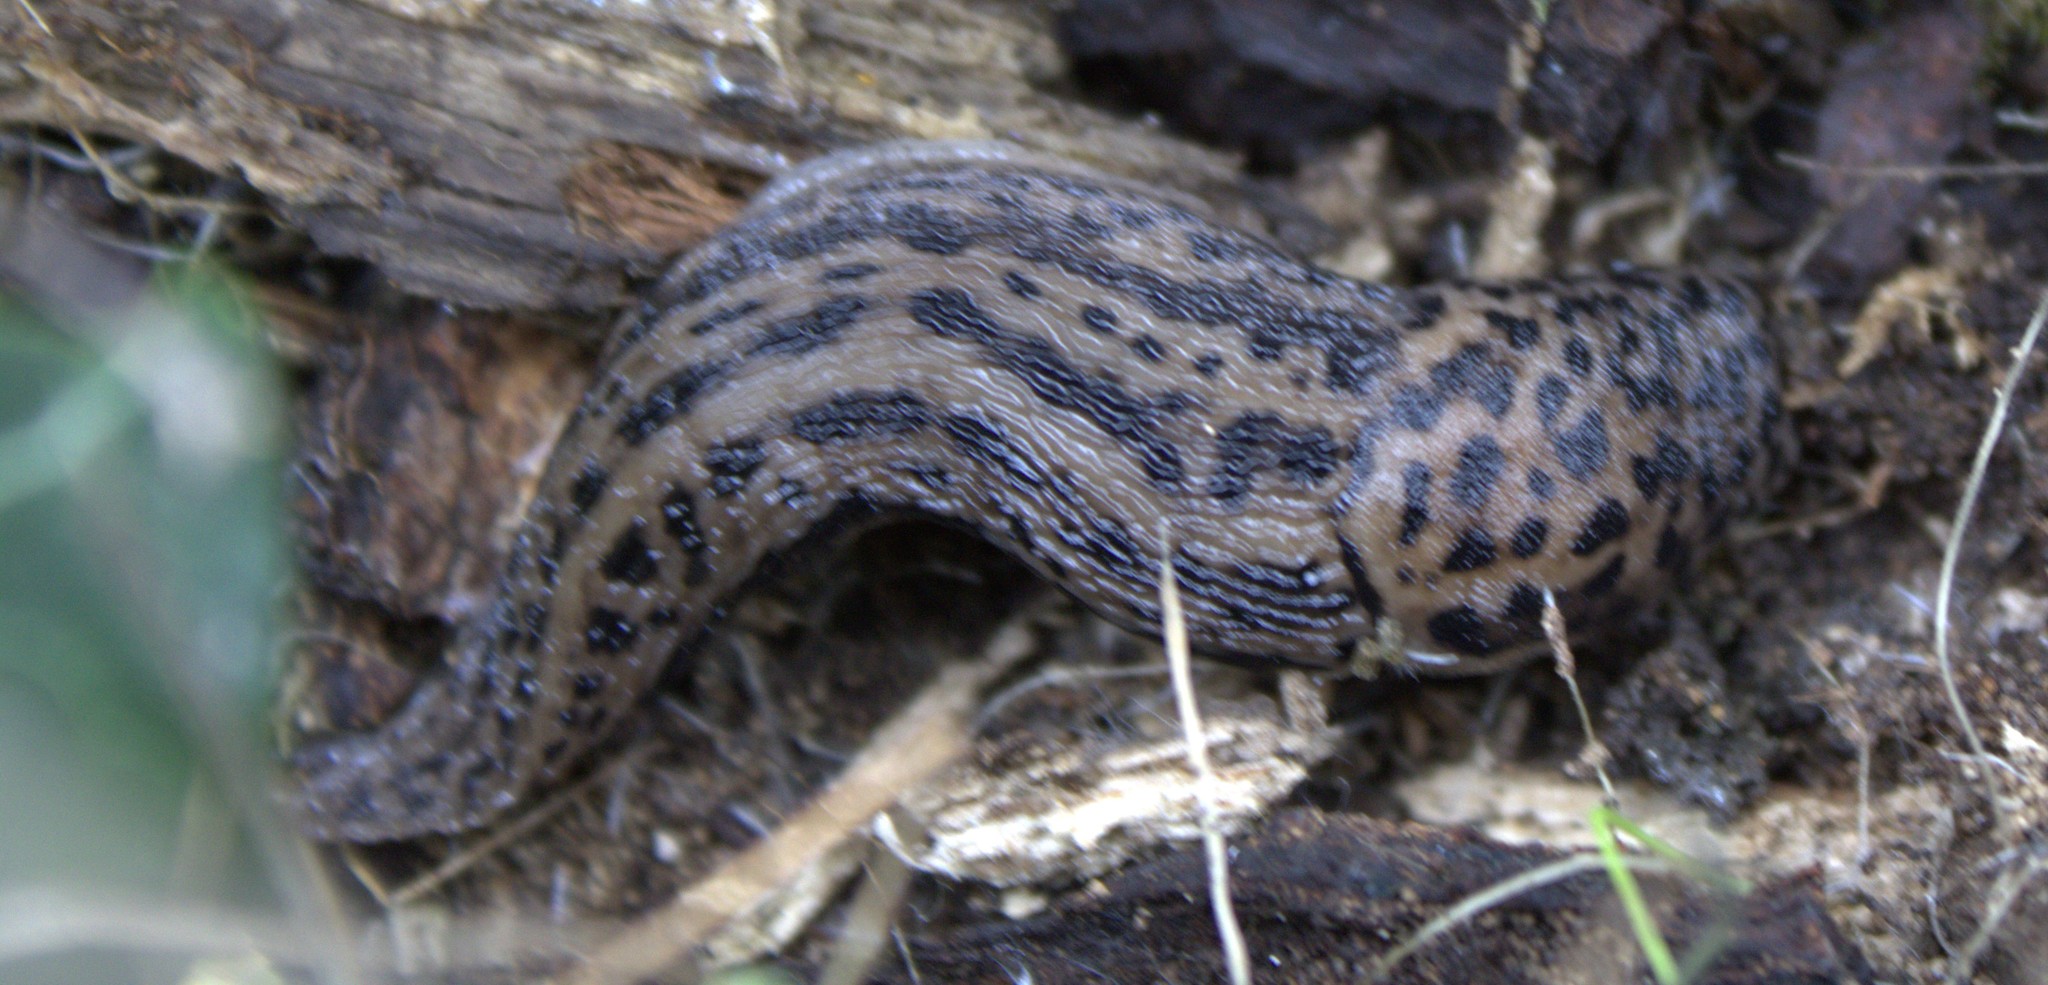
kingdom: Animalia
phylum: Mollusca
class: Gastropoda
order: Stylommatophora
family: Limacidae
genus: Limax
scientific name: Limax maximus
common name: Great grey slug
